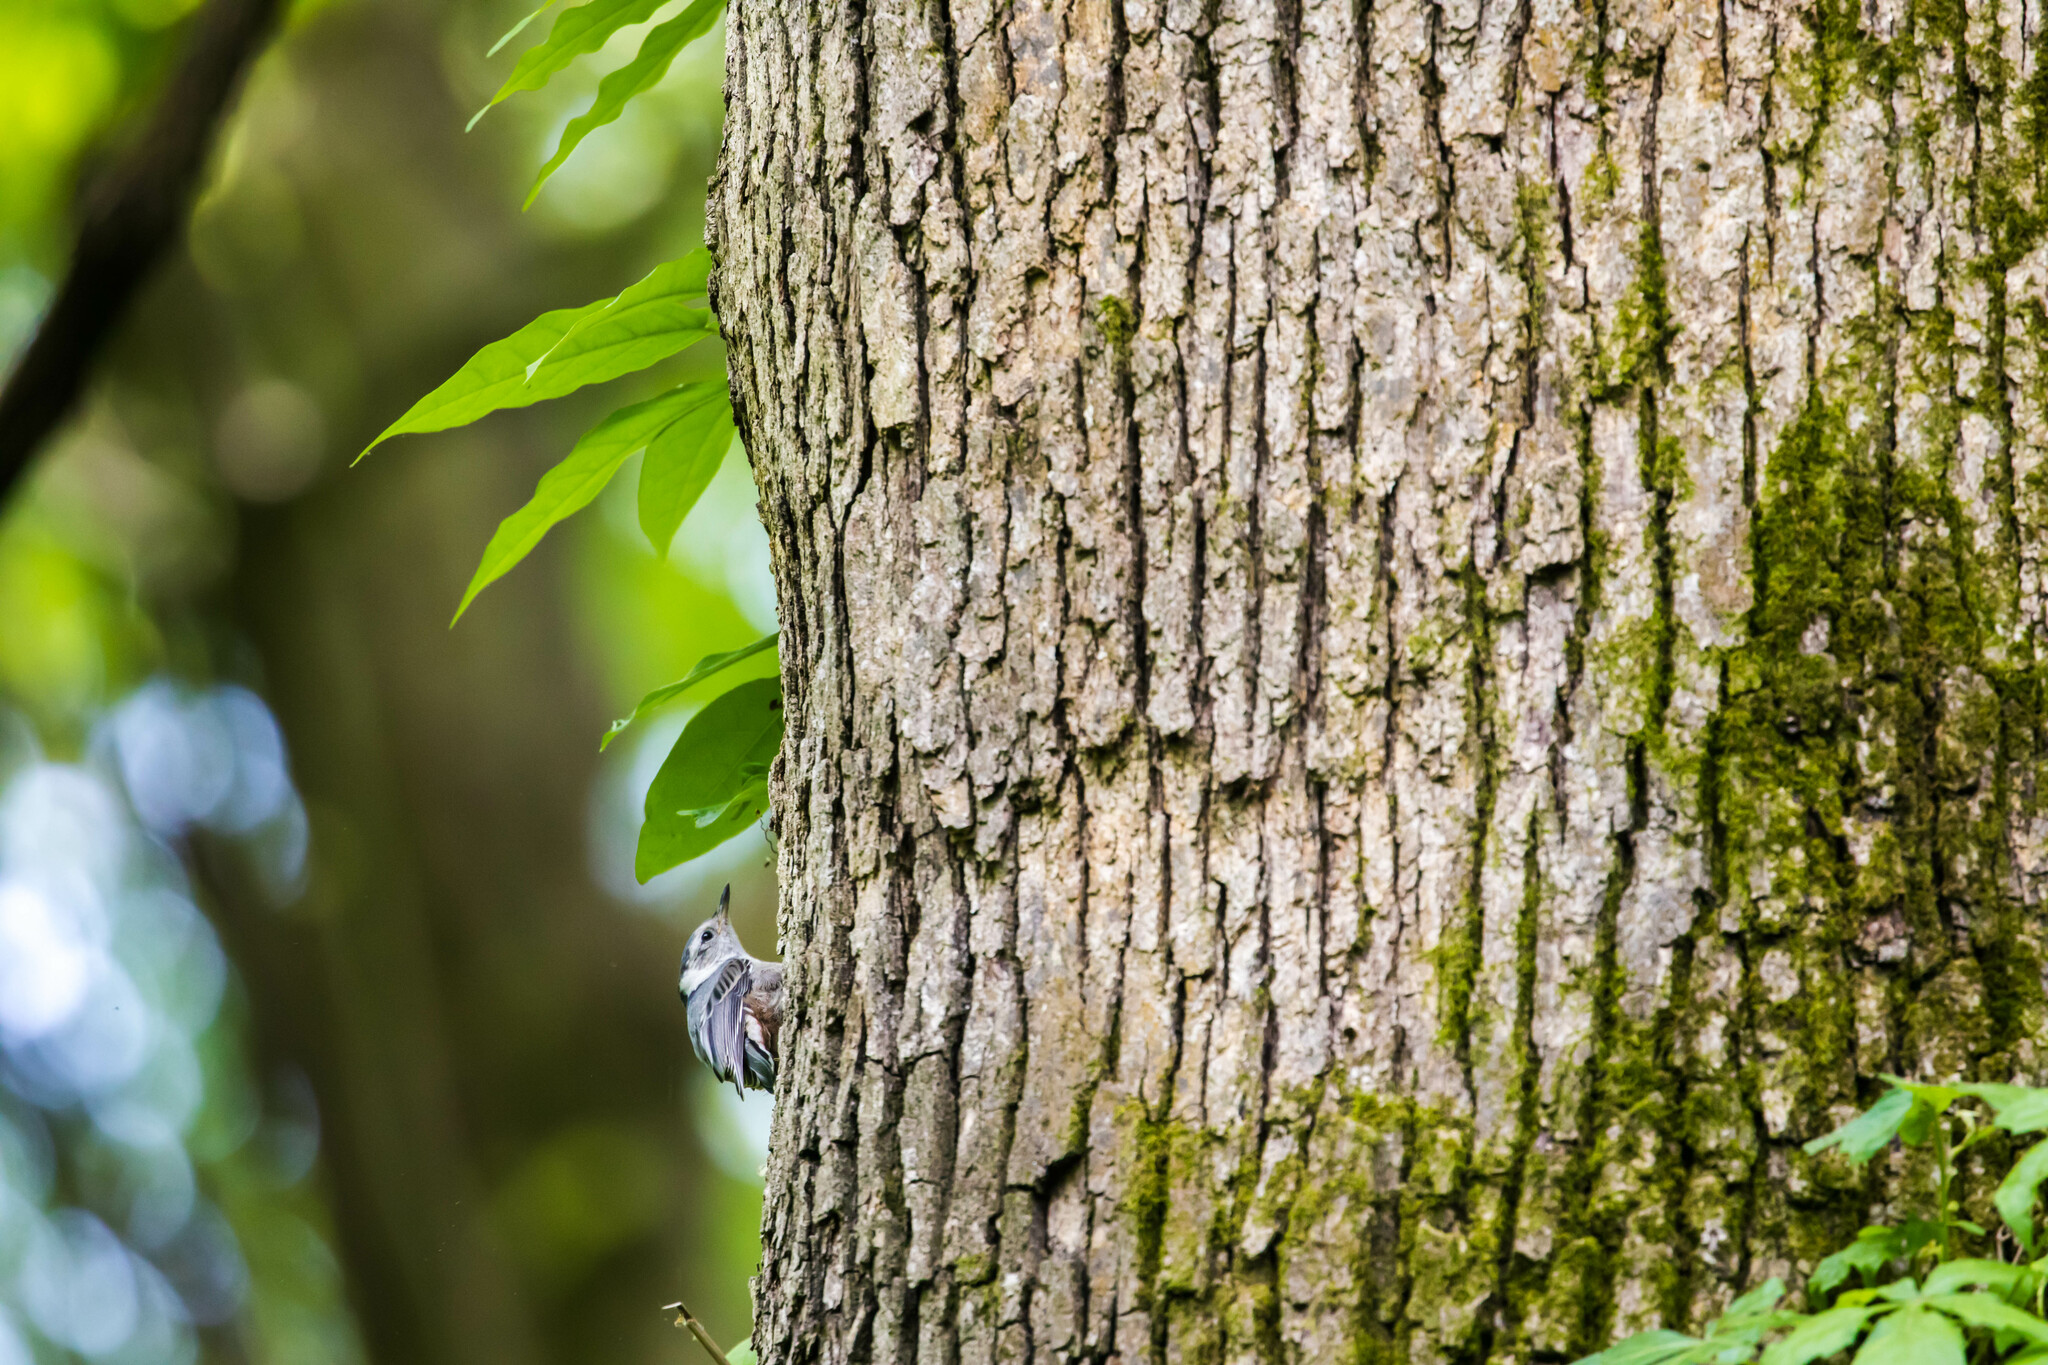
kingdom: Animalia
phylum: Chordata
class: Aves
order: Passeriformes
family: Sittidae
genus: Sitta
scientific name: Sitta carolinensis
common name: White-breasted nuthatch
